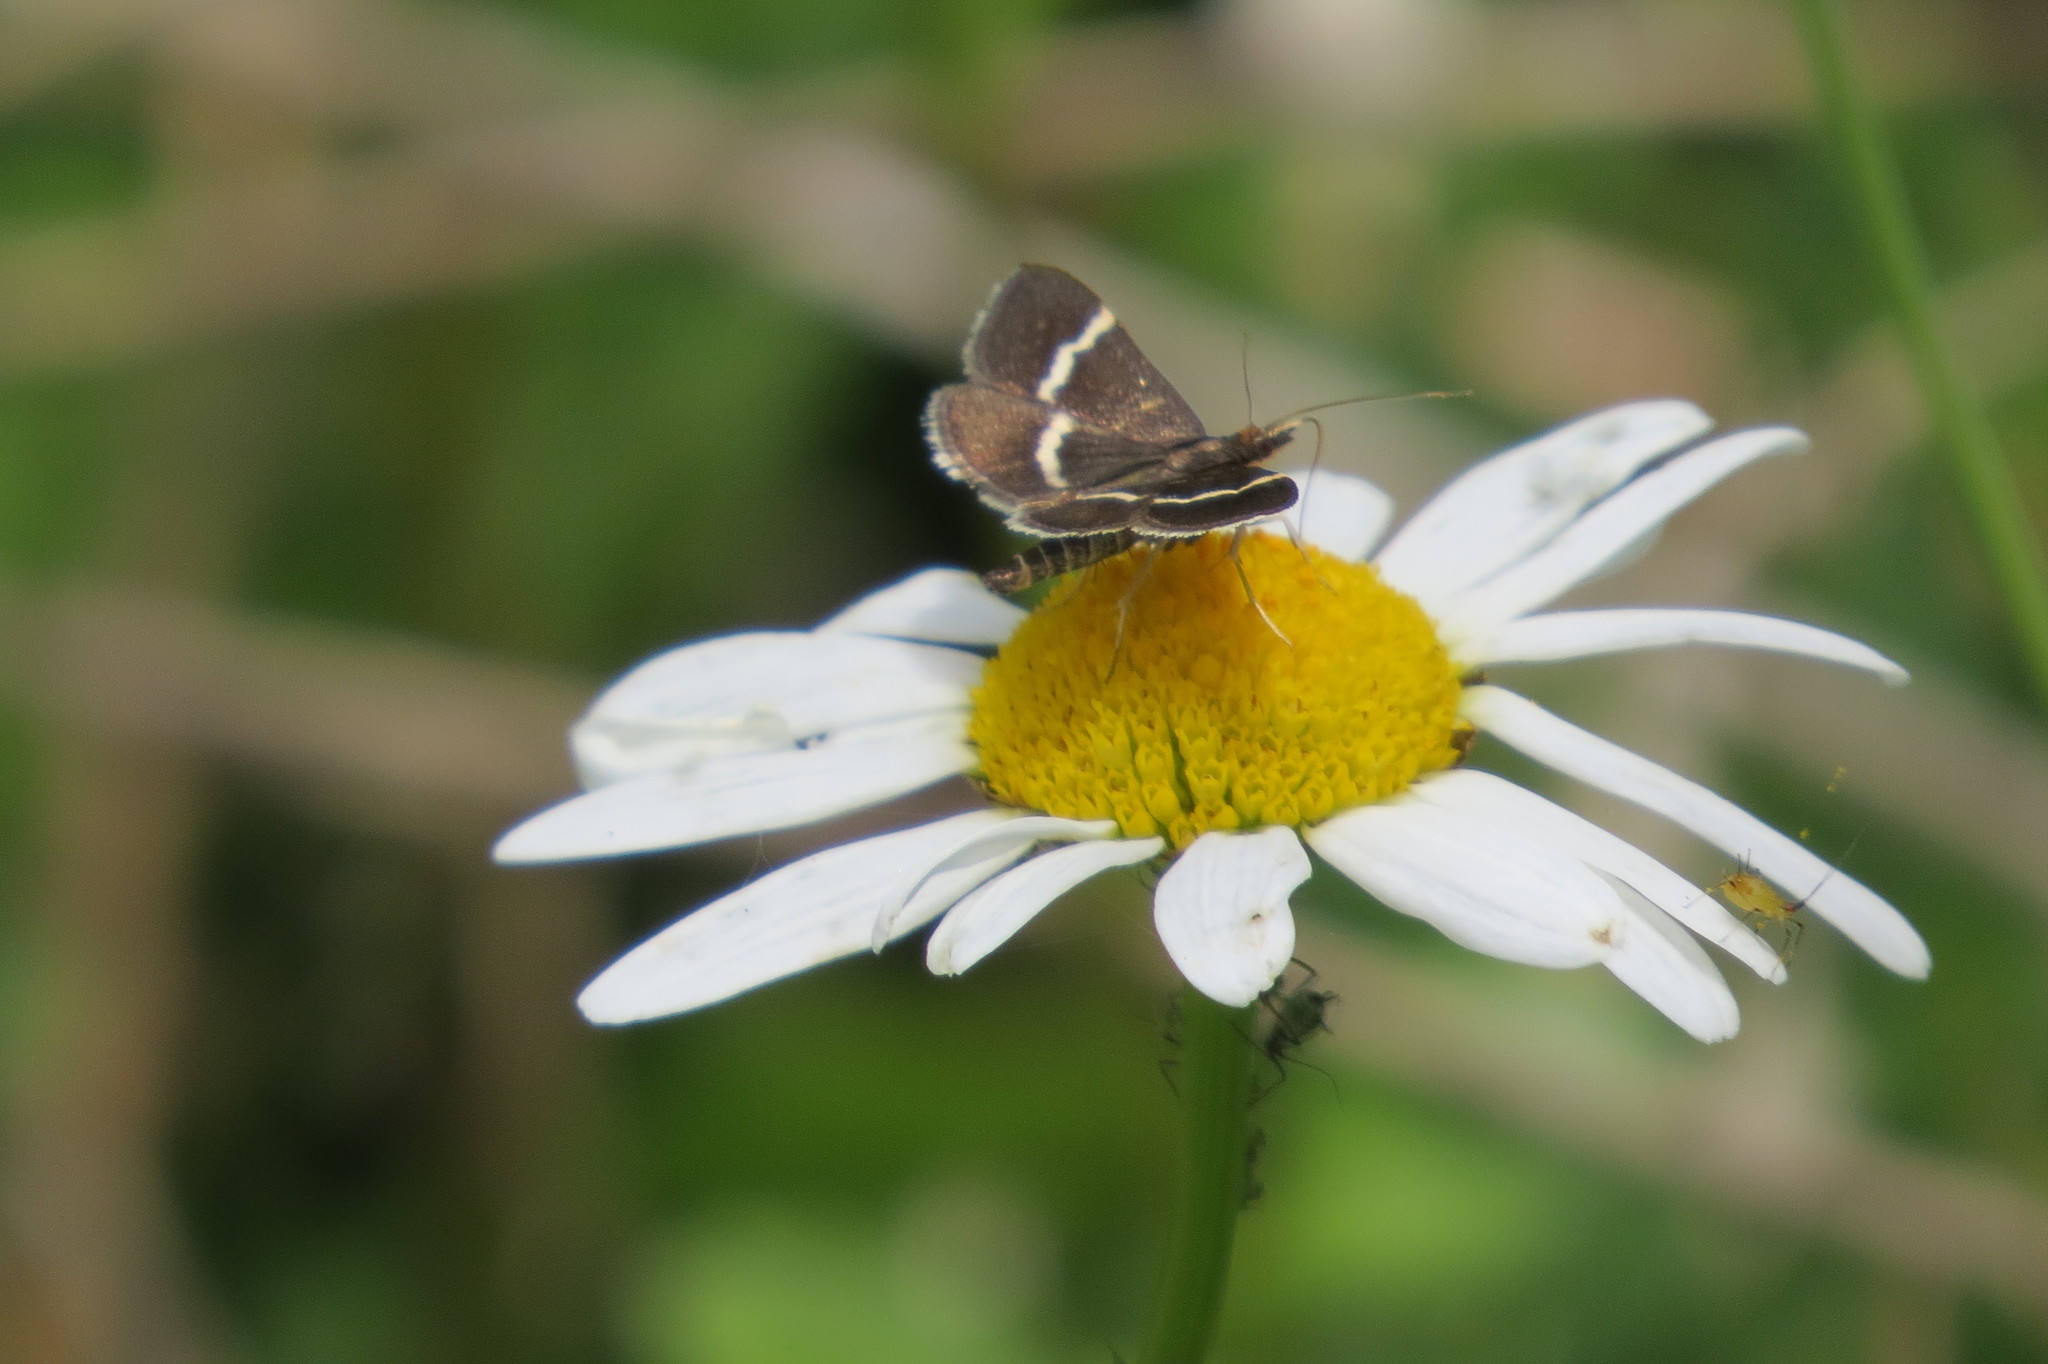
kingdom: Animalia
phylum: Arthropoda
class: Insecta
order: Lepidoptera
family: Crambidae
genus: Pyrausta
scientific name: Pyrausta cingulata
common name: Silver-barred sable
